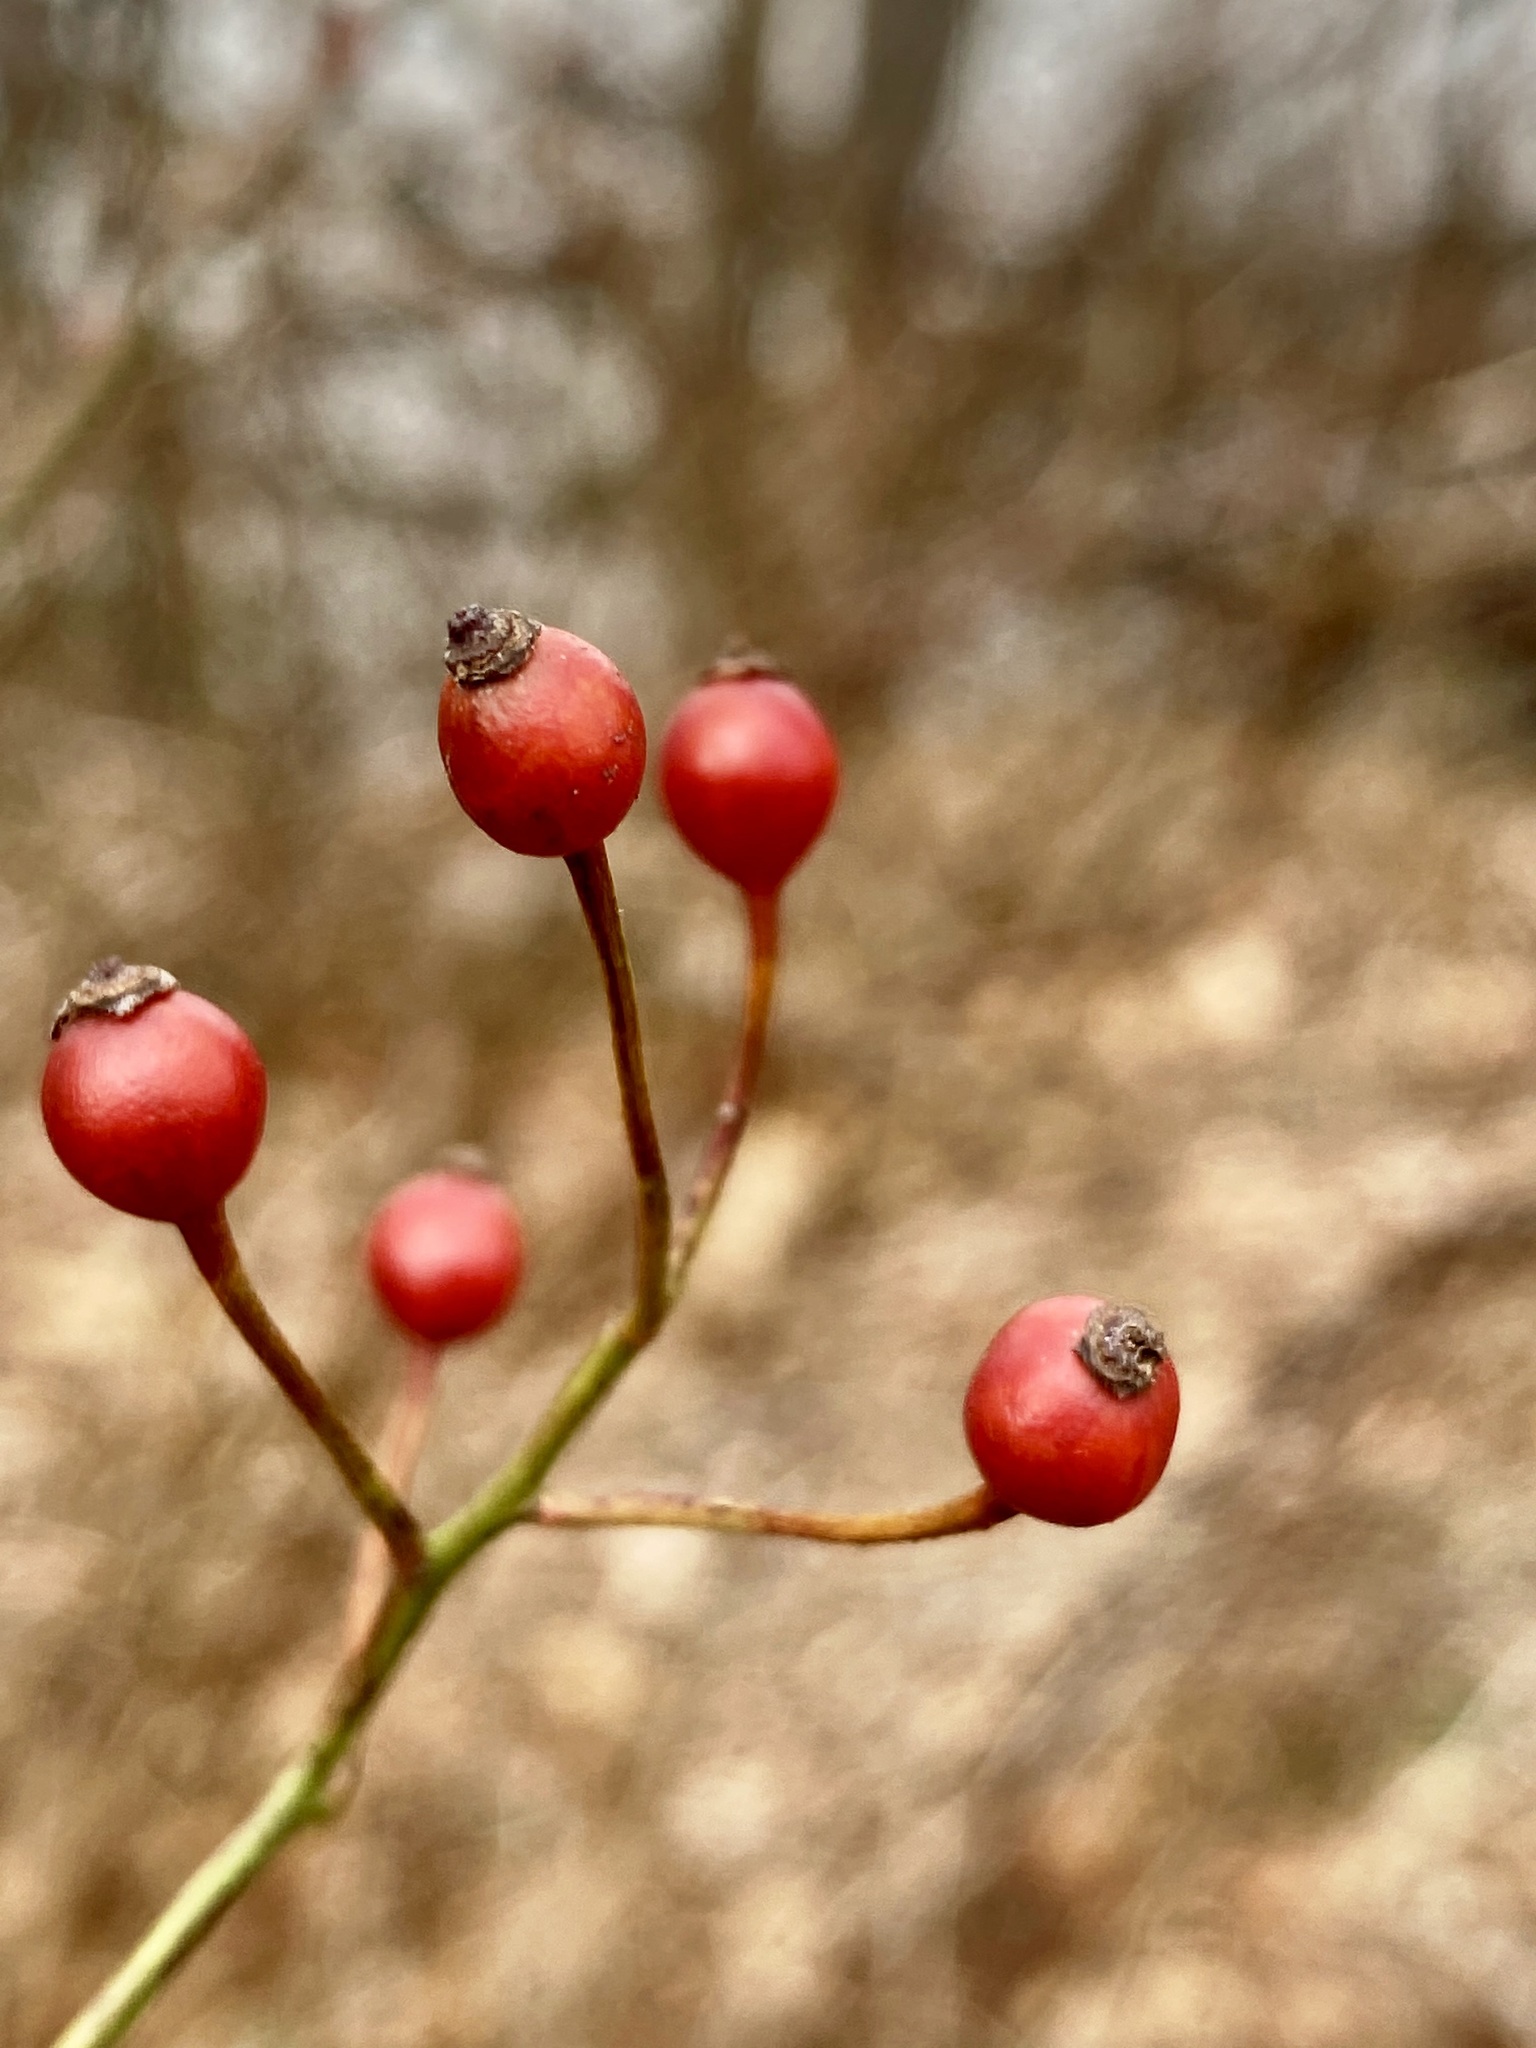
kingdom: Plantae
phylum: Tracheophyta
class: Magnoliopsida
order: Rosales
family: Rosaceae
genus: Rosa
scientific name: Rosa multiflora
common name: Multiflora rose
